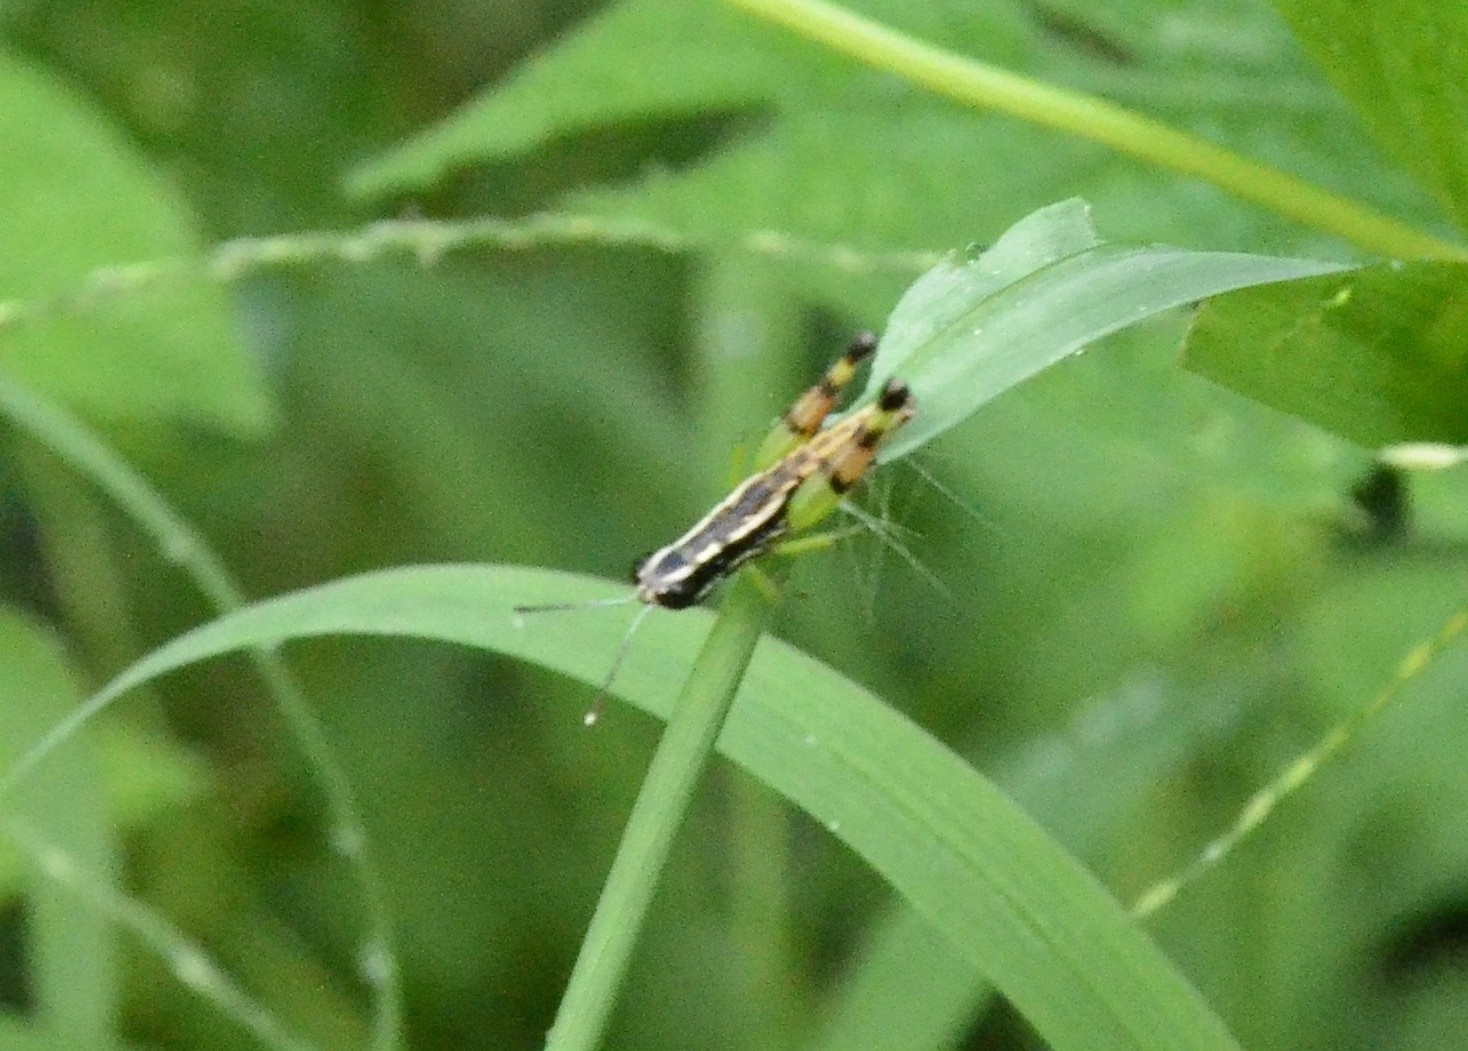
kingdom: Animalia
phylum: Arthropoda
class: Insecta
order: Orthoptera
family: Acrididae
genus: Chitaura
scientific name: Chitaura indica
